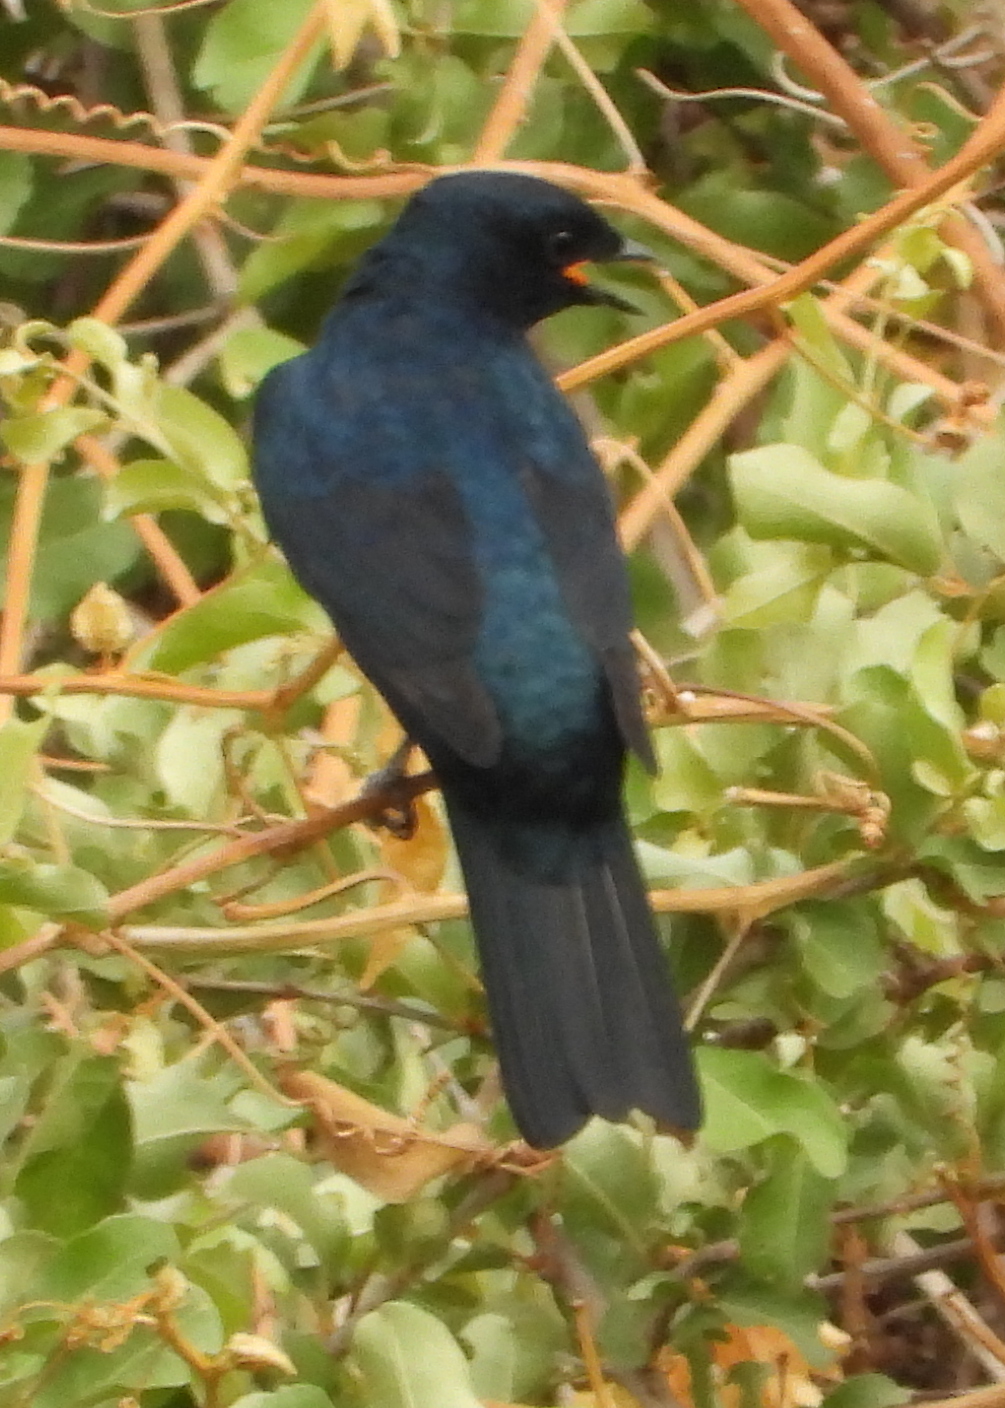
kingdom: Animalia
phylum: Chordata
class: Aves
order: Passeriformes
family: Campephagidae
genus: Campephaga
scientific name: Campephaga flava
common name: Black cuckooshrike
